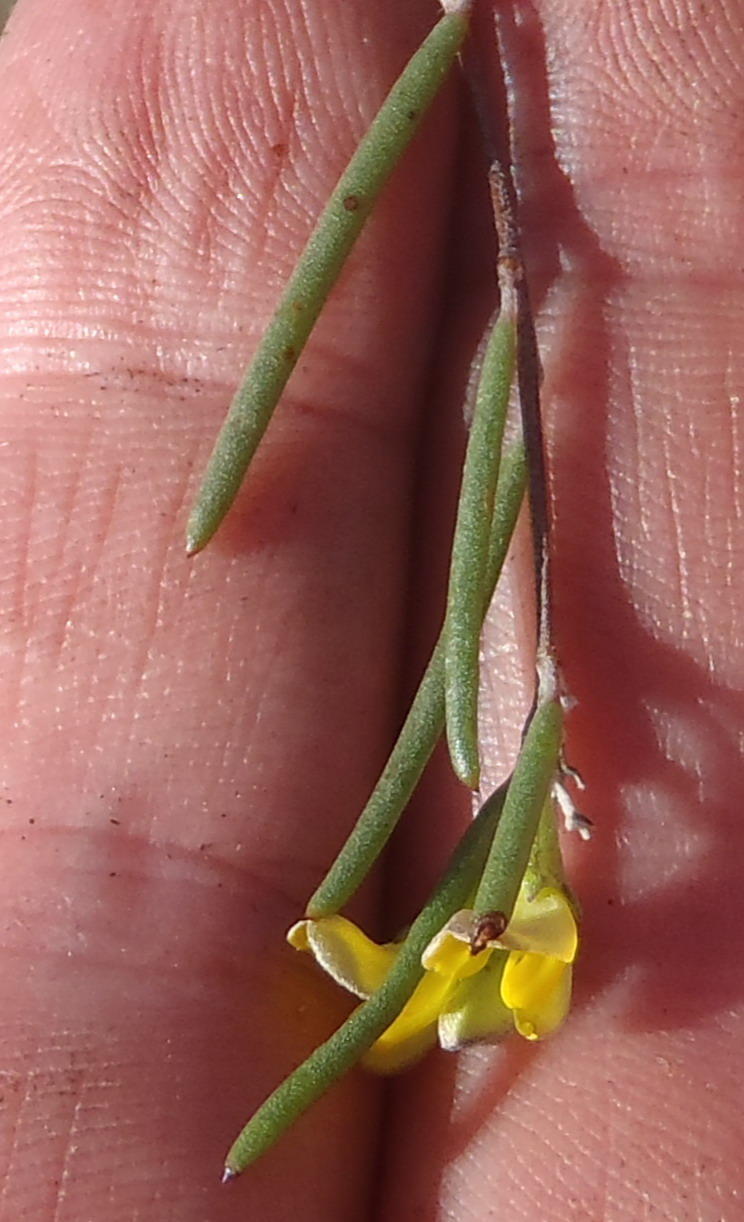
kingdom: Plantae
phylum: Tracheophyta
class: Magnoliopsida
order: Fabales
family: Fabaceae
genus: Aspalathus
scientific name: Aspalathus linearis
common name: Rooibos-tea
